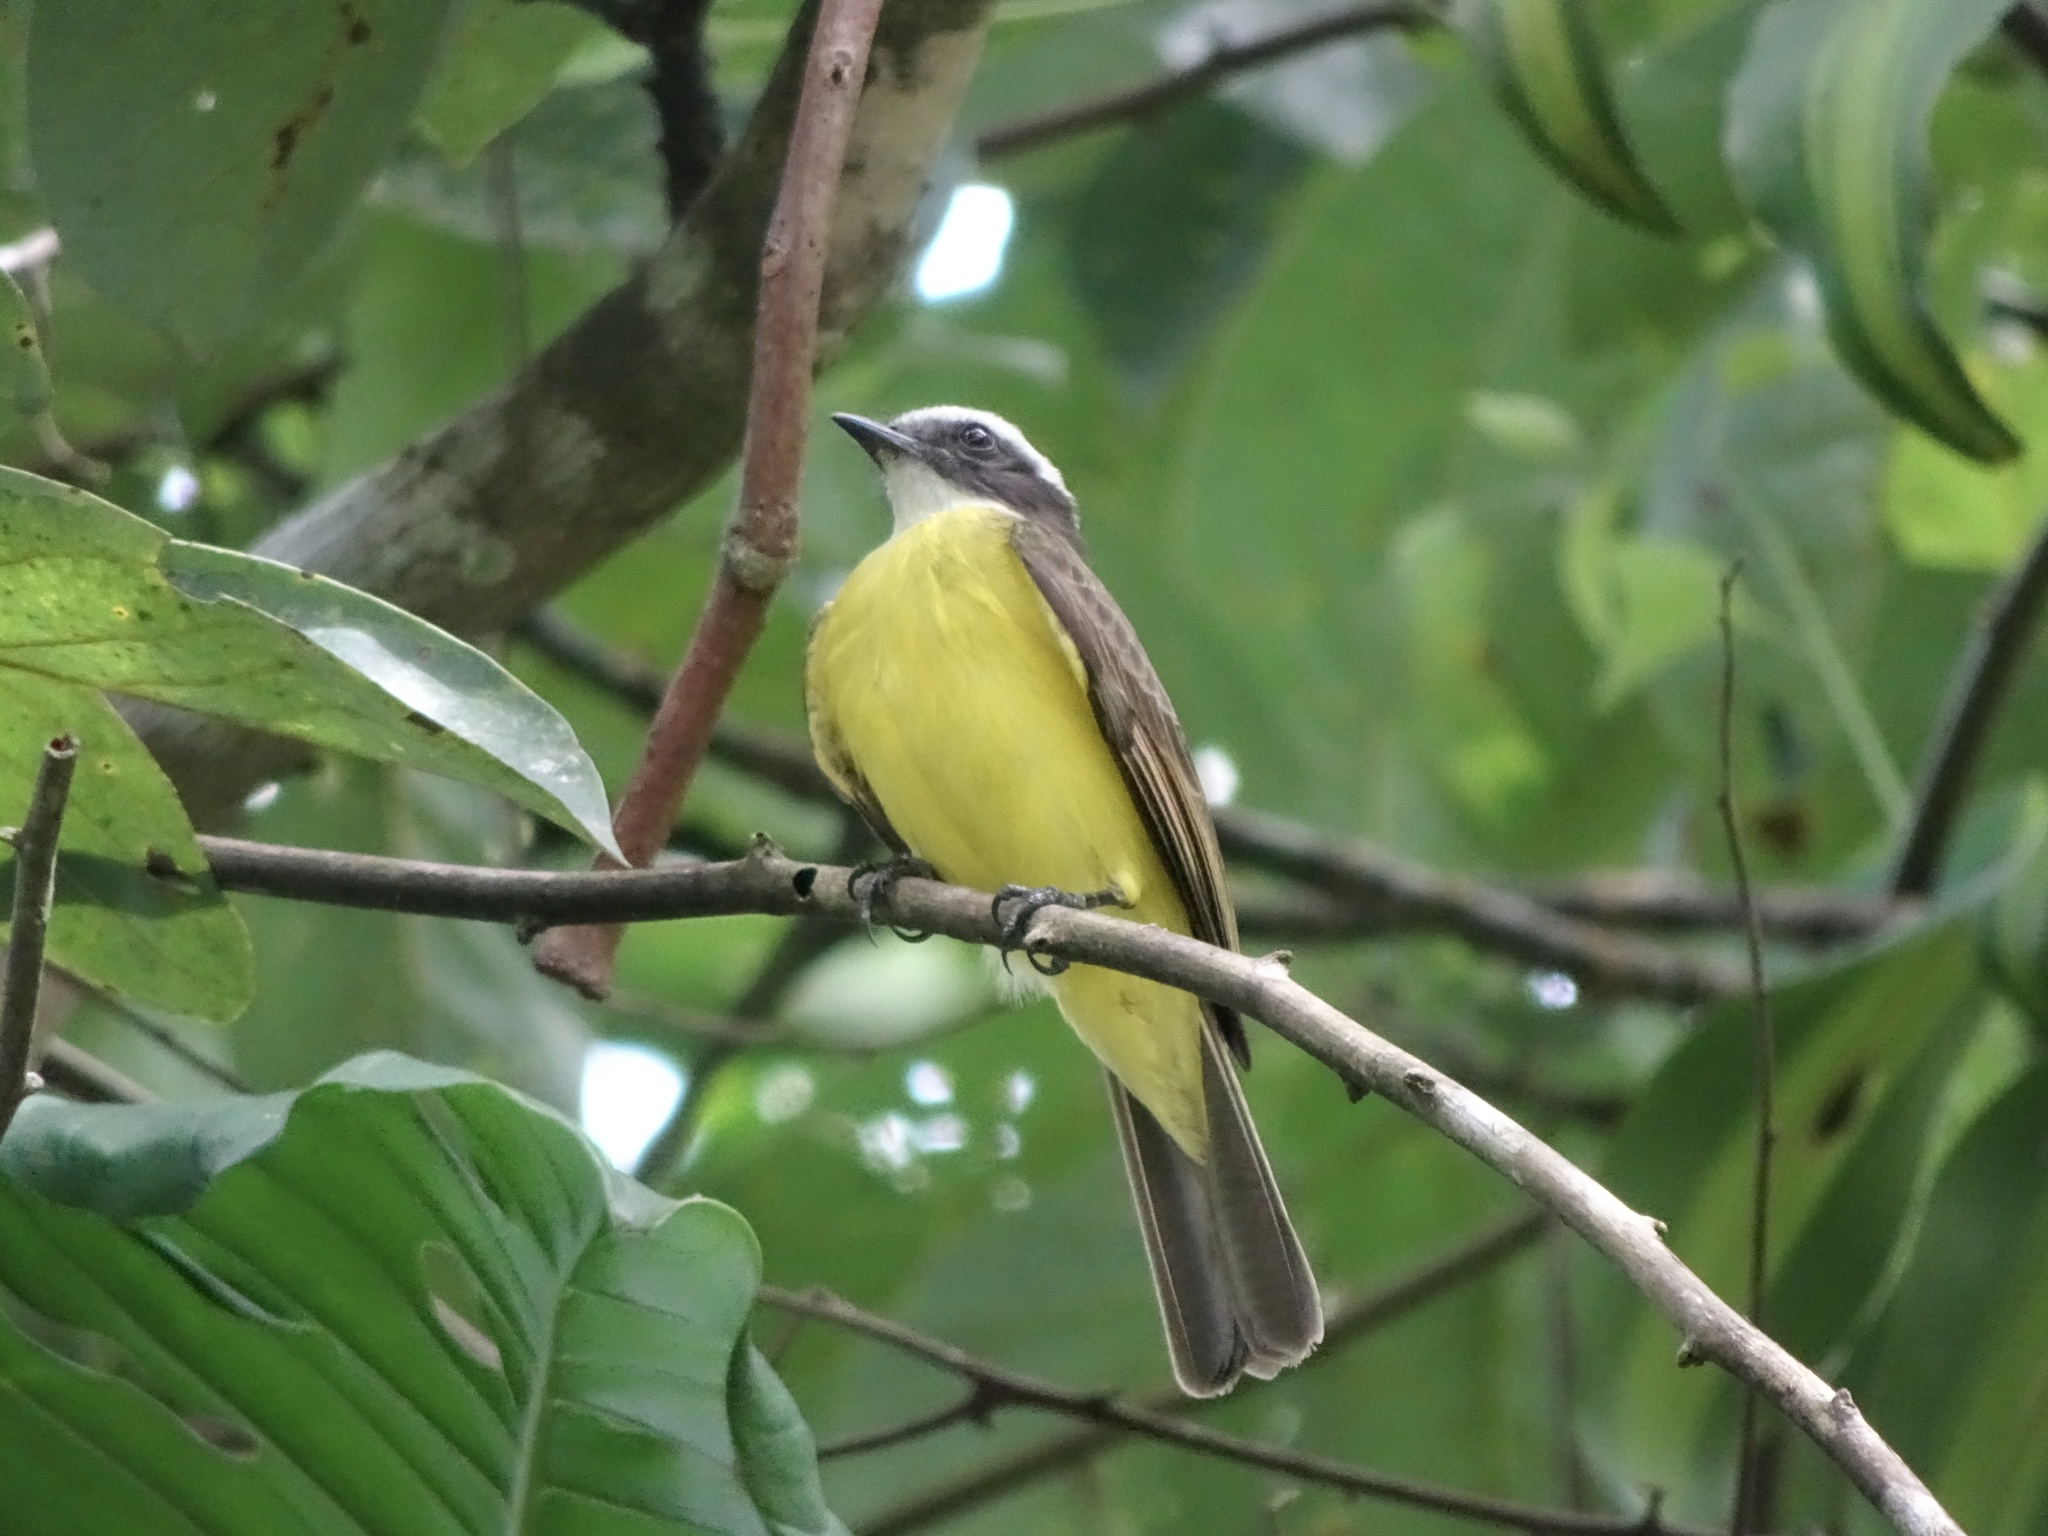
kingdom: Animalia
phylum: Chordata
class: Aves
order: Passeriformes
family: Tyrannidae
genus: Myiozetetes
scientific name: Myiozetetes cayanensis
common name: Rusty-margined flycatcher
